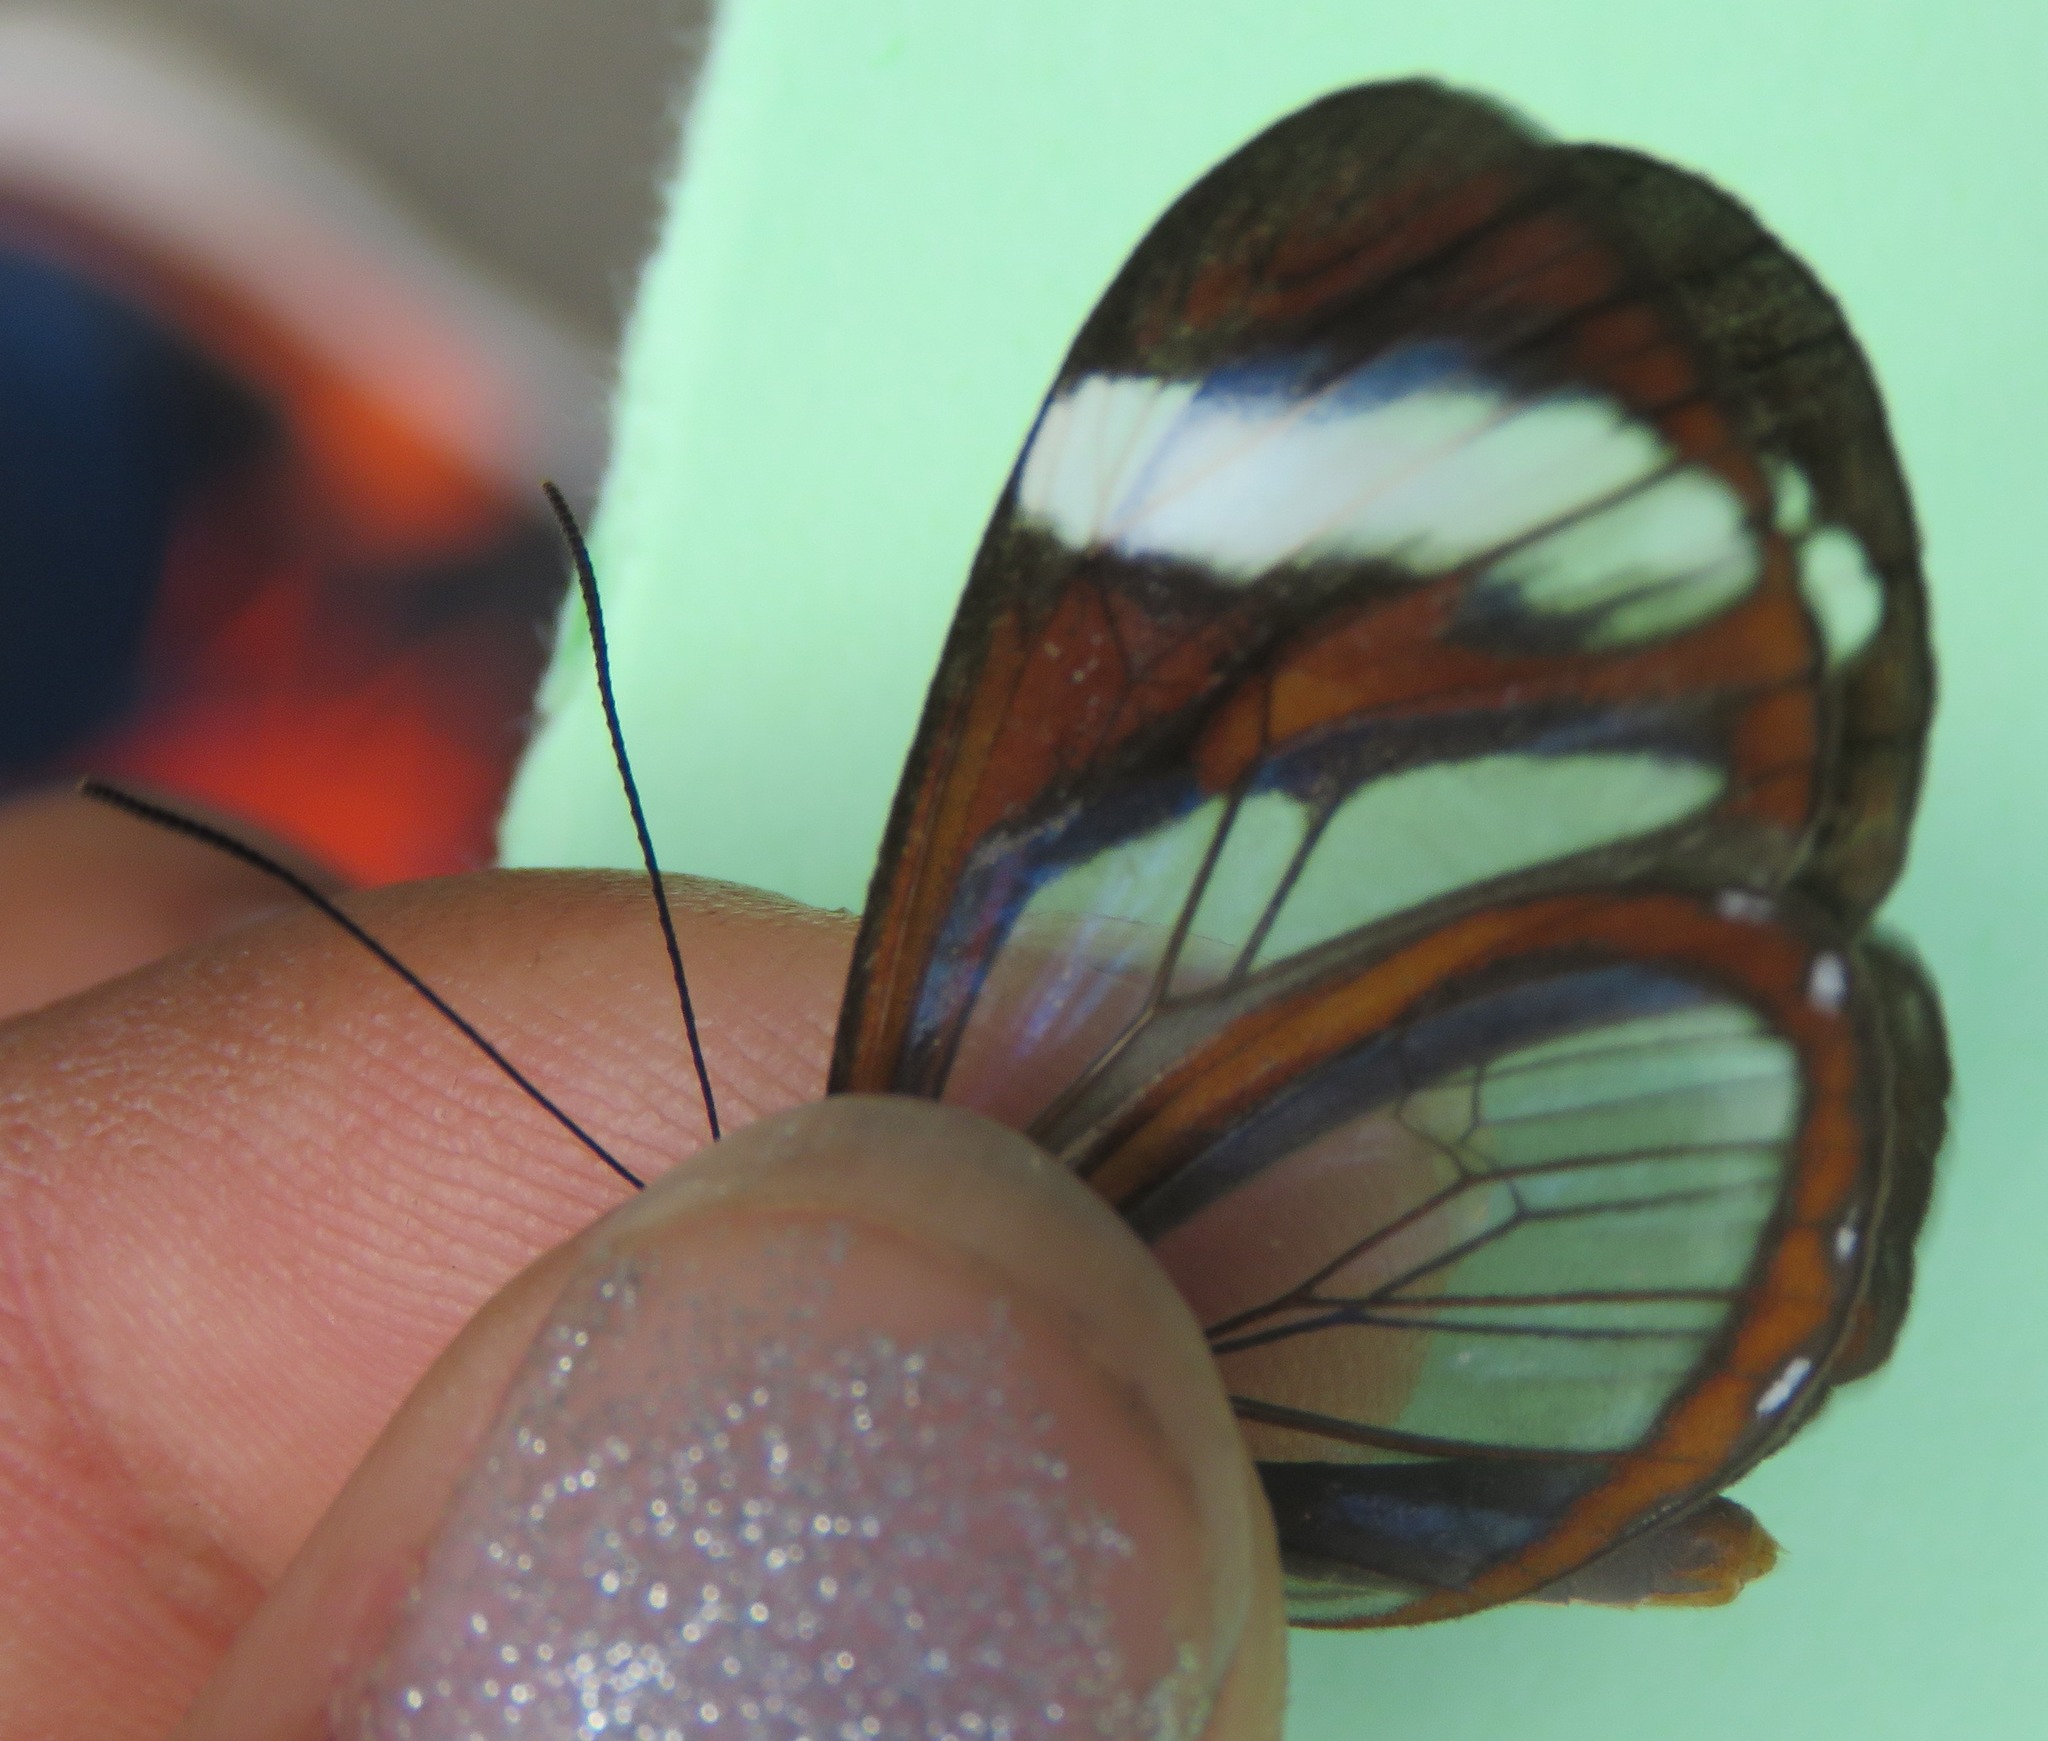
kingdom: Animalia
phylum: Arthropoda
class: Insecta
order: Lepidoptera
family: Nymphalidae
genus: Ithomia
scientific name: Ithomia patilla
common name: Patilla clearwing
